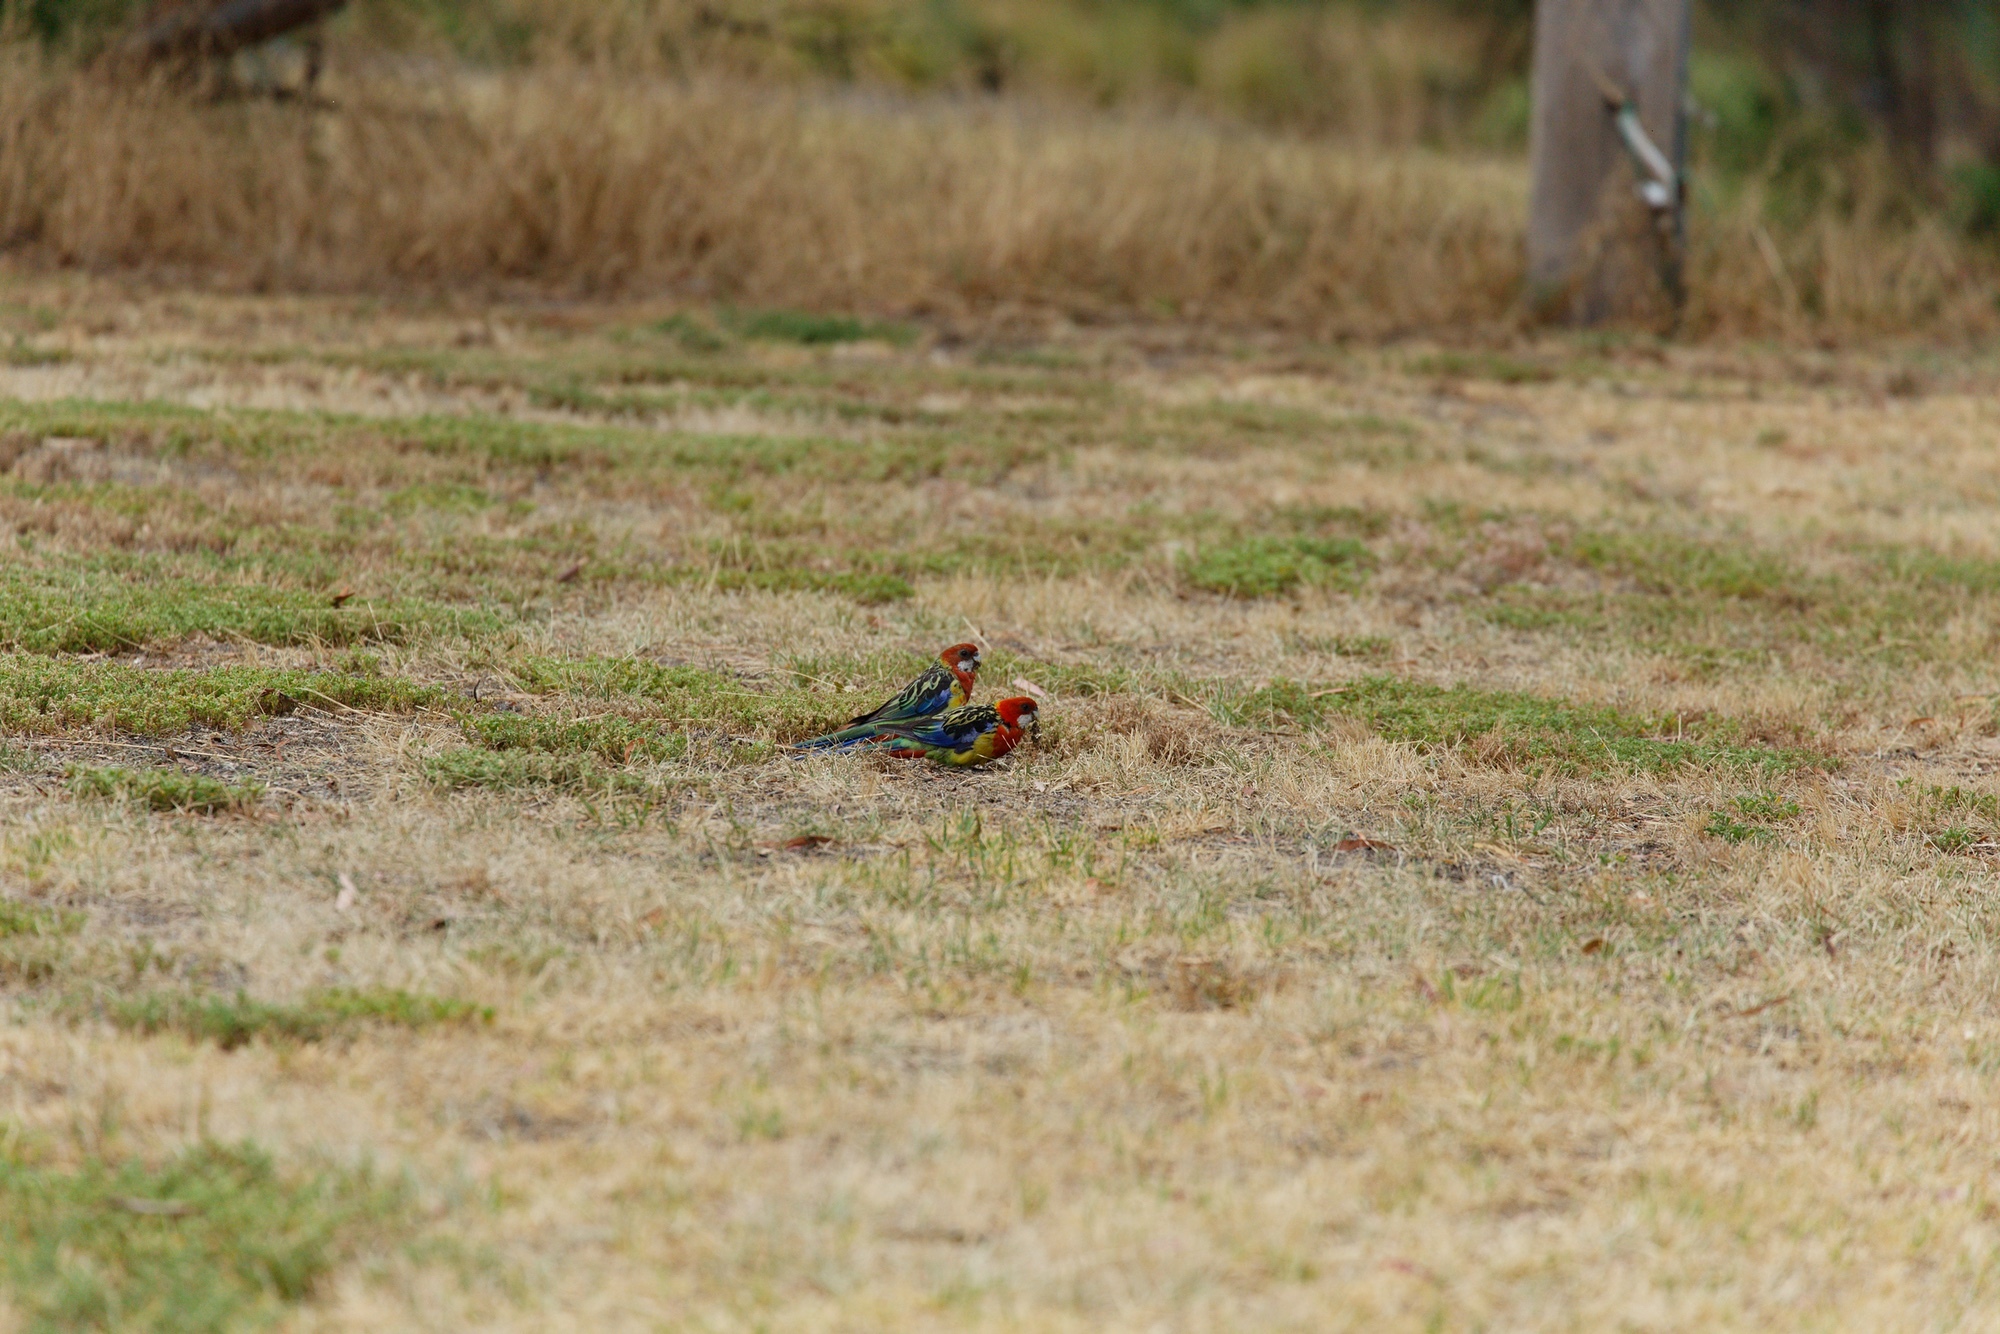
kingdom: Animalia
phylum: Chordata
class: Aves
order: Psittaciformes
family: Psittacidae
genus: Platycercus
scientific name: Platycercus eximius
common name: Eastern rosella
